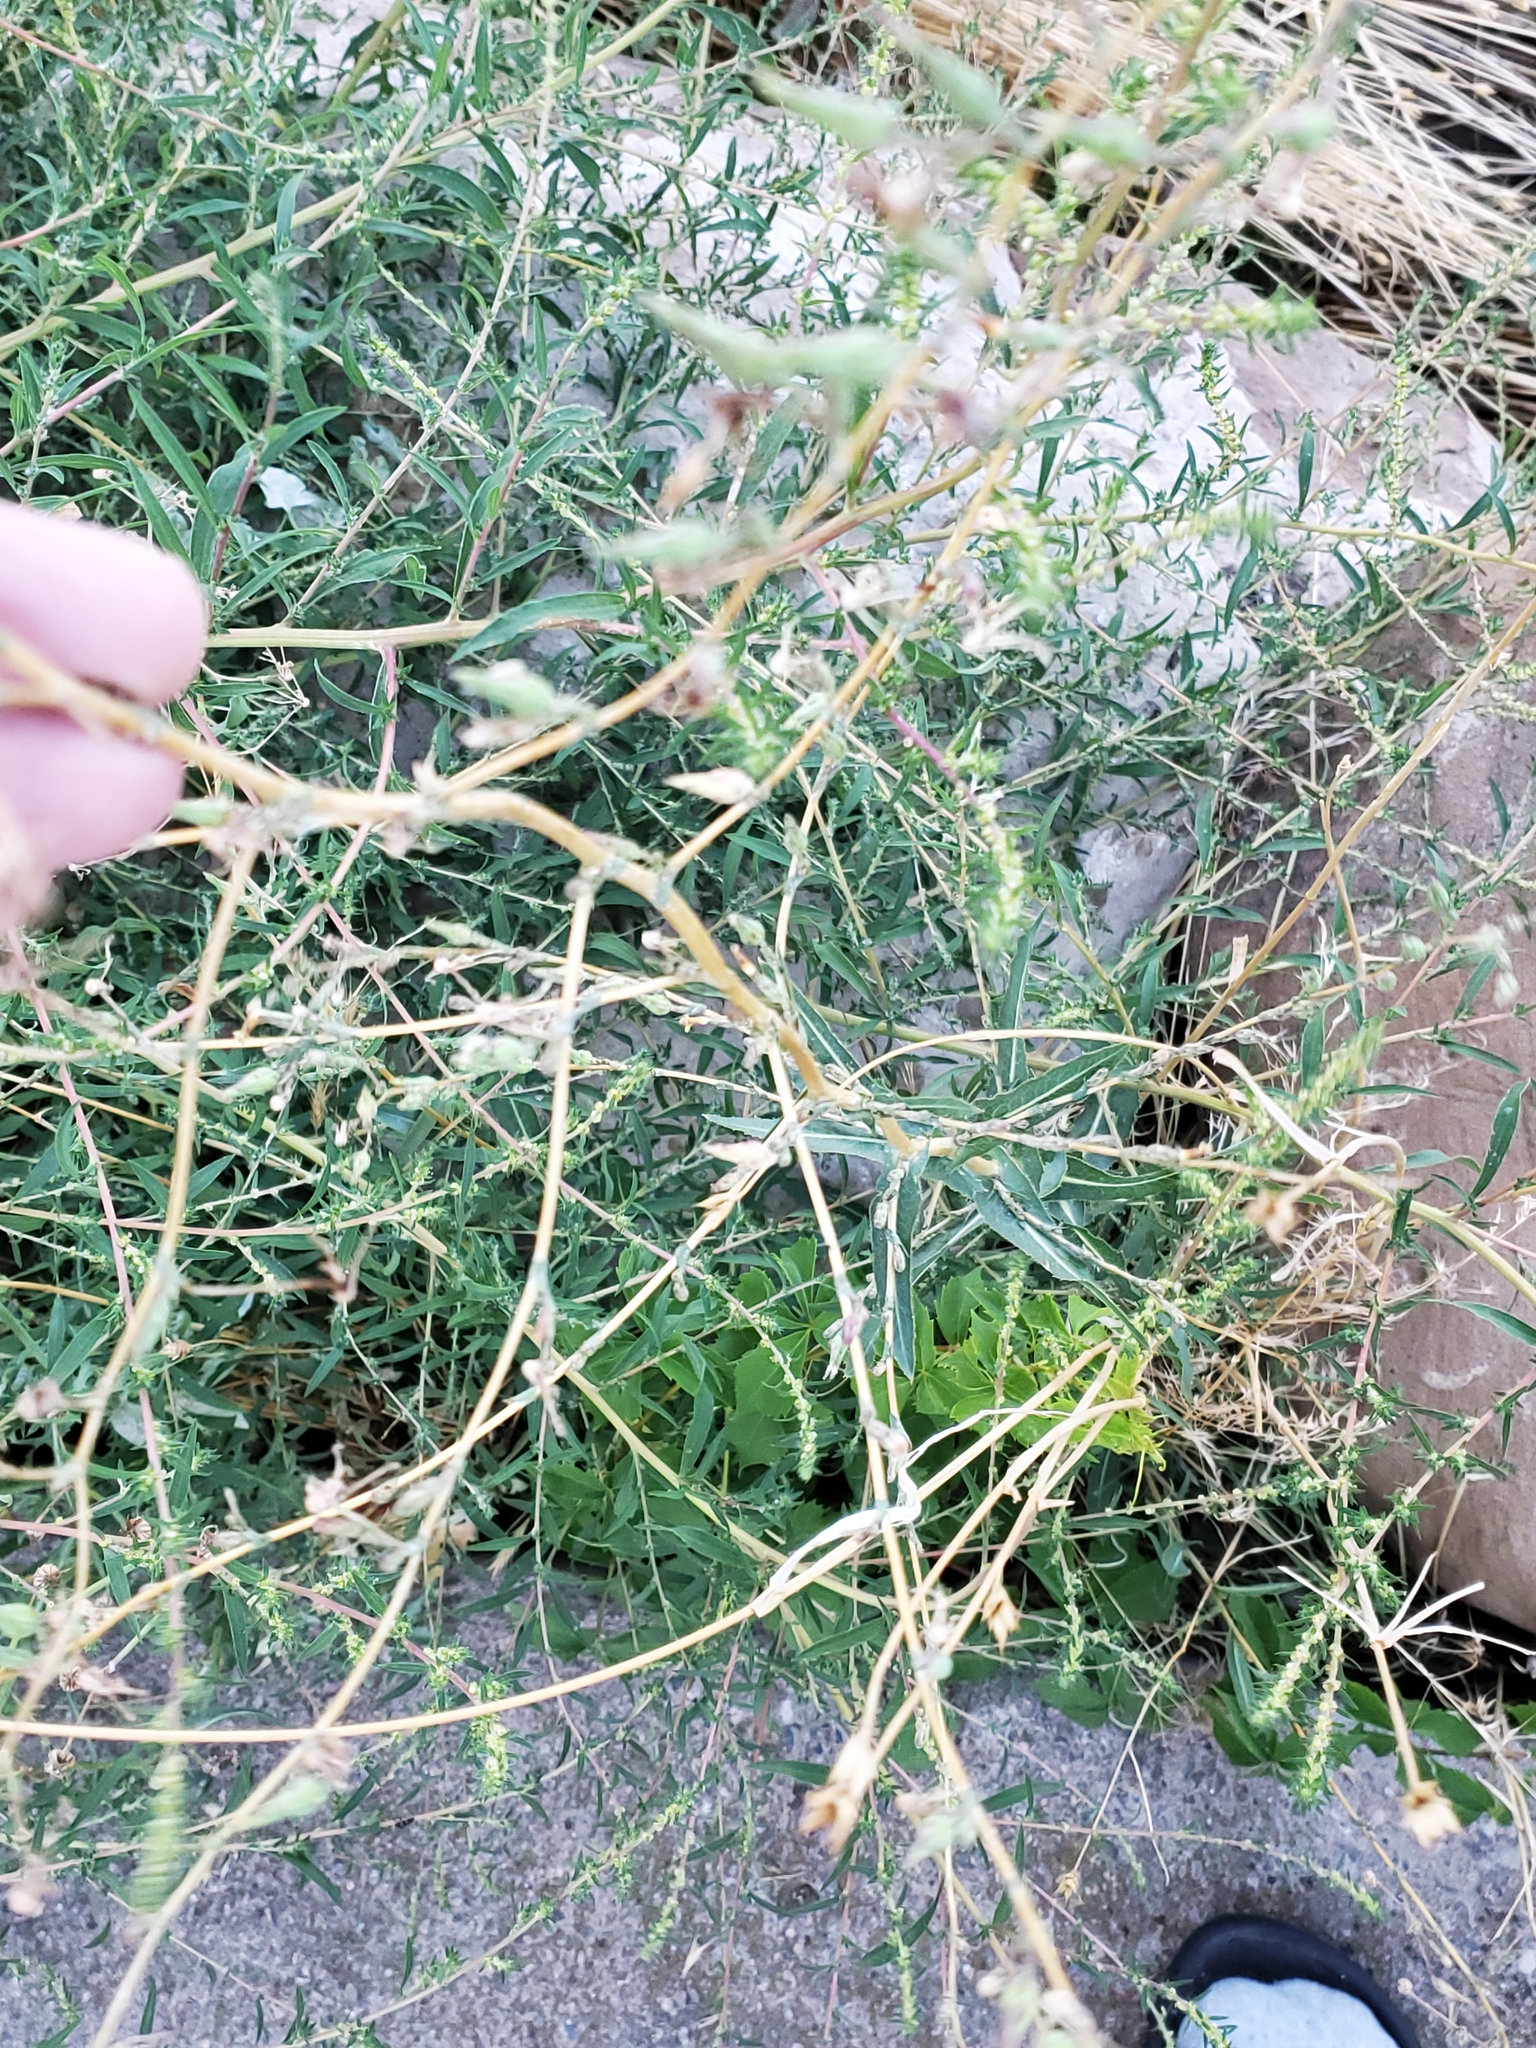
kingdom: Plantae
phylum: Tracheophyta
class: Magnoliopsida
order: Asterales
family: Asteraceae
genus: Lactuca
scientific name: Lactuca serriola
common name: Prickly lettuce
